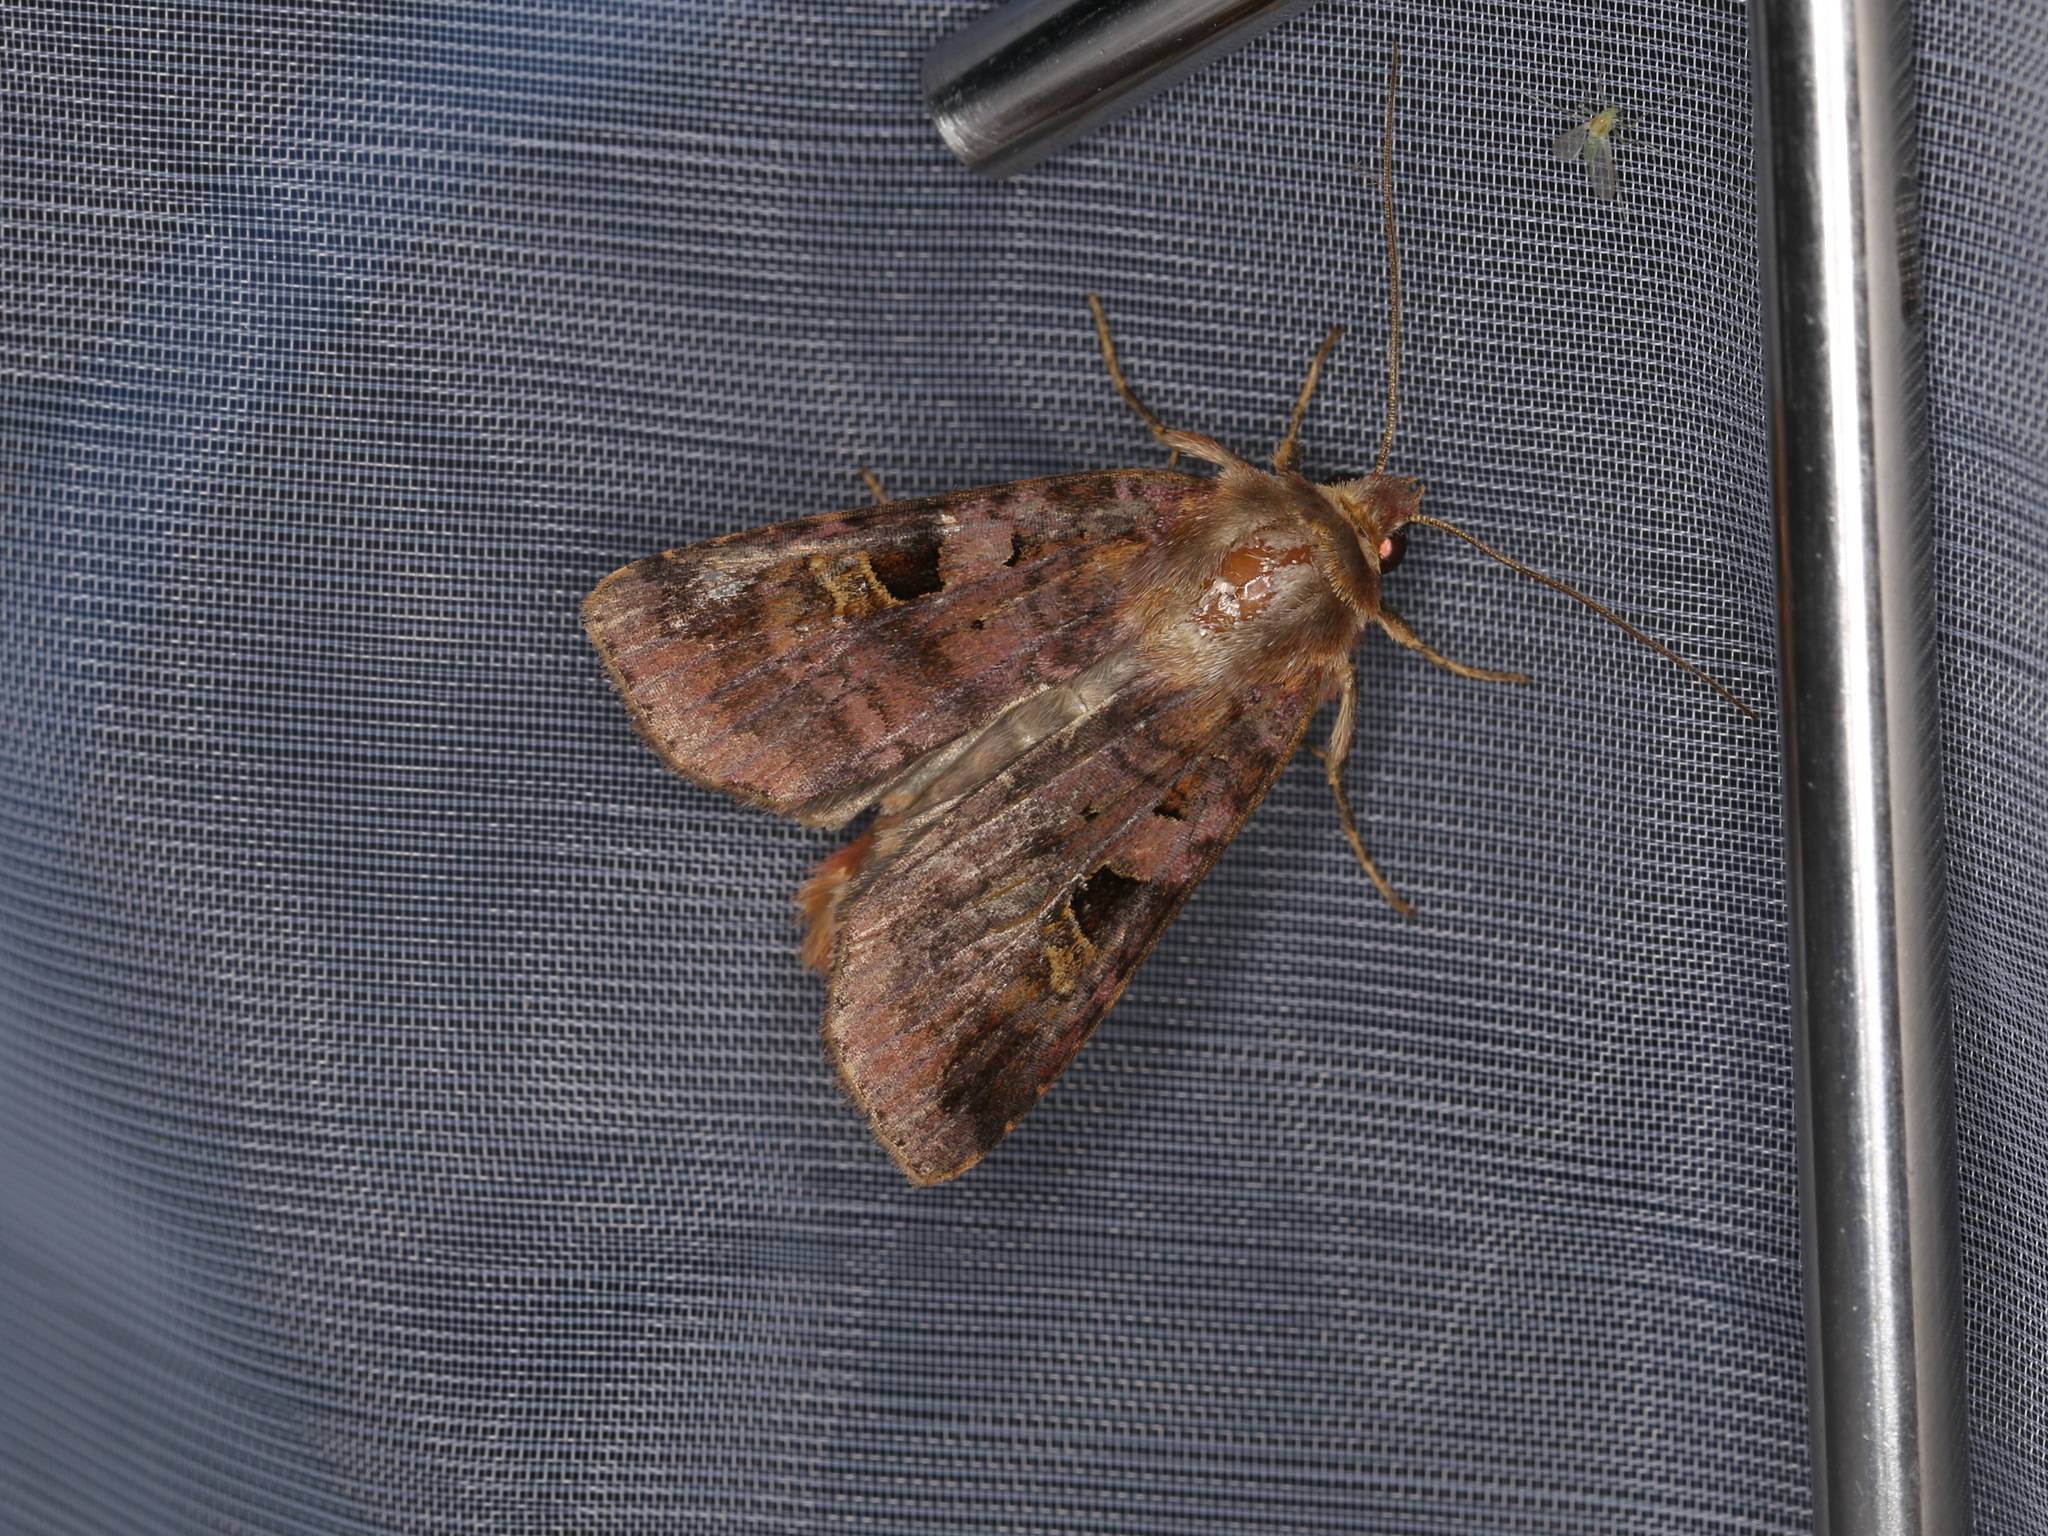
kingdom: Animalia
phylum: Arthropoda
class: Insecta
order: Lepidoptera
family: Noctuidae
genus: Diarsia
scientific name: Diarsia brunnea
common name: Purple clay
